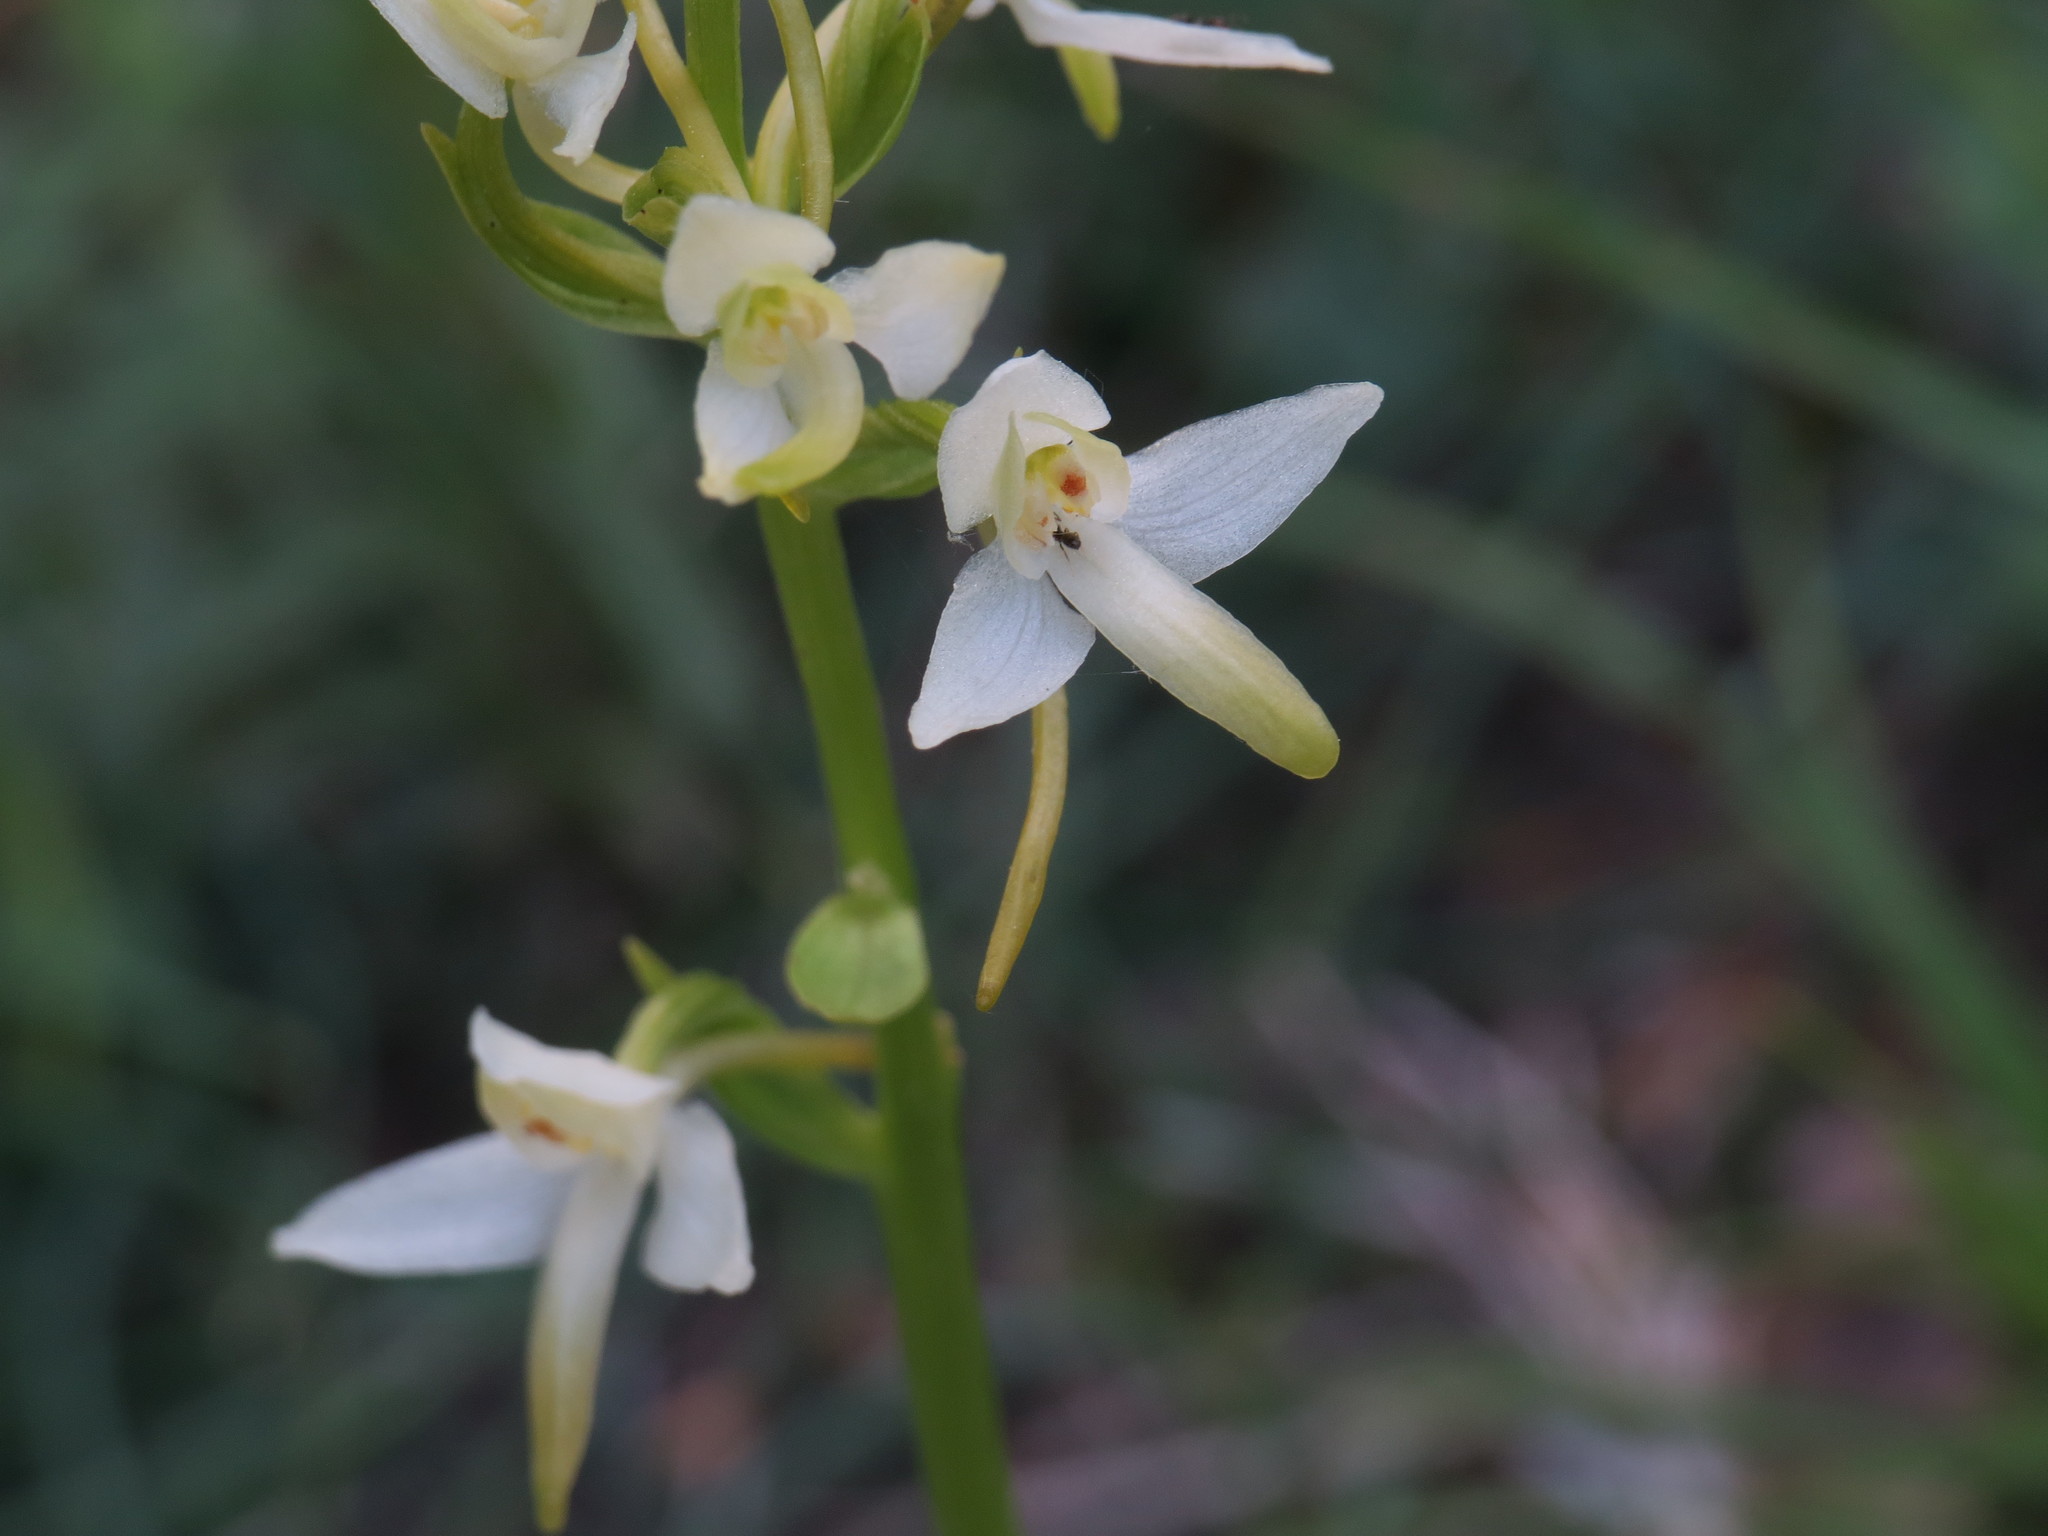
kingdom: Plantae
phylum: Tracheophyta
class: Liliopsida
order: Asparagales
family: Orchidaceae
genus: Platanthera
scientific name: Platanthera bifolia
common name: Lesser butterfly-orchid
